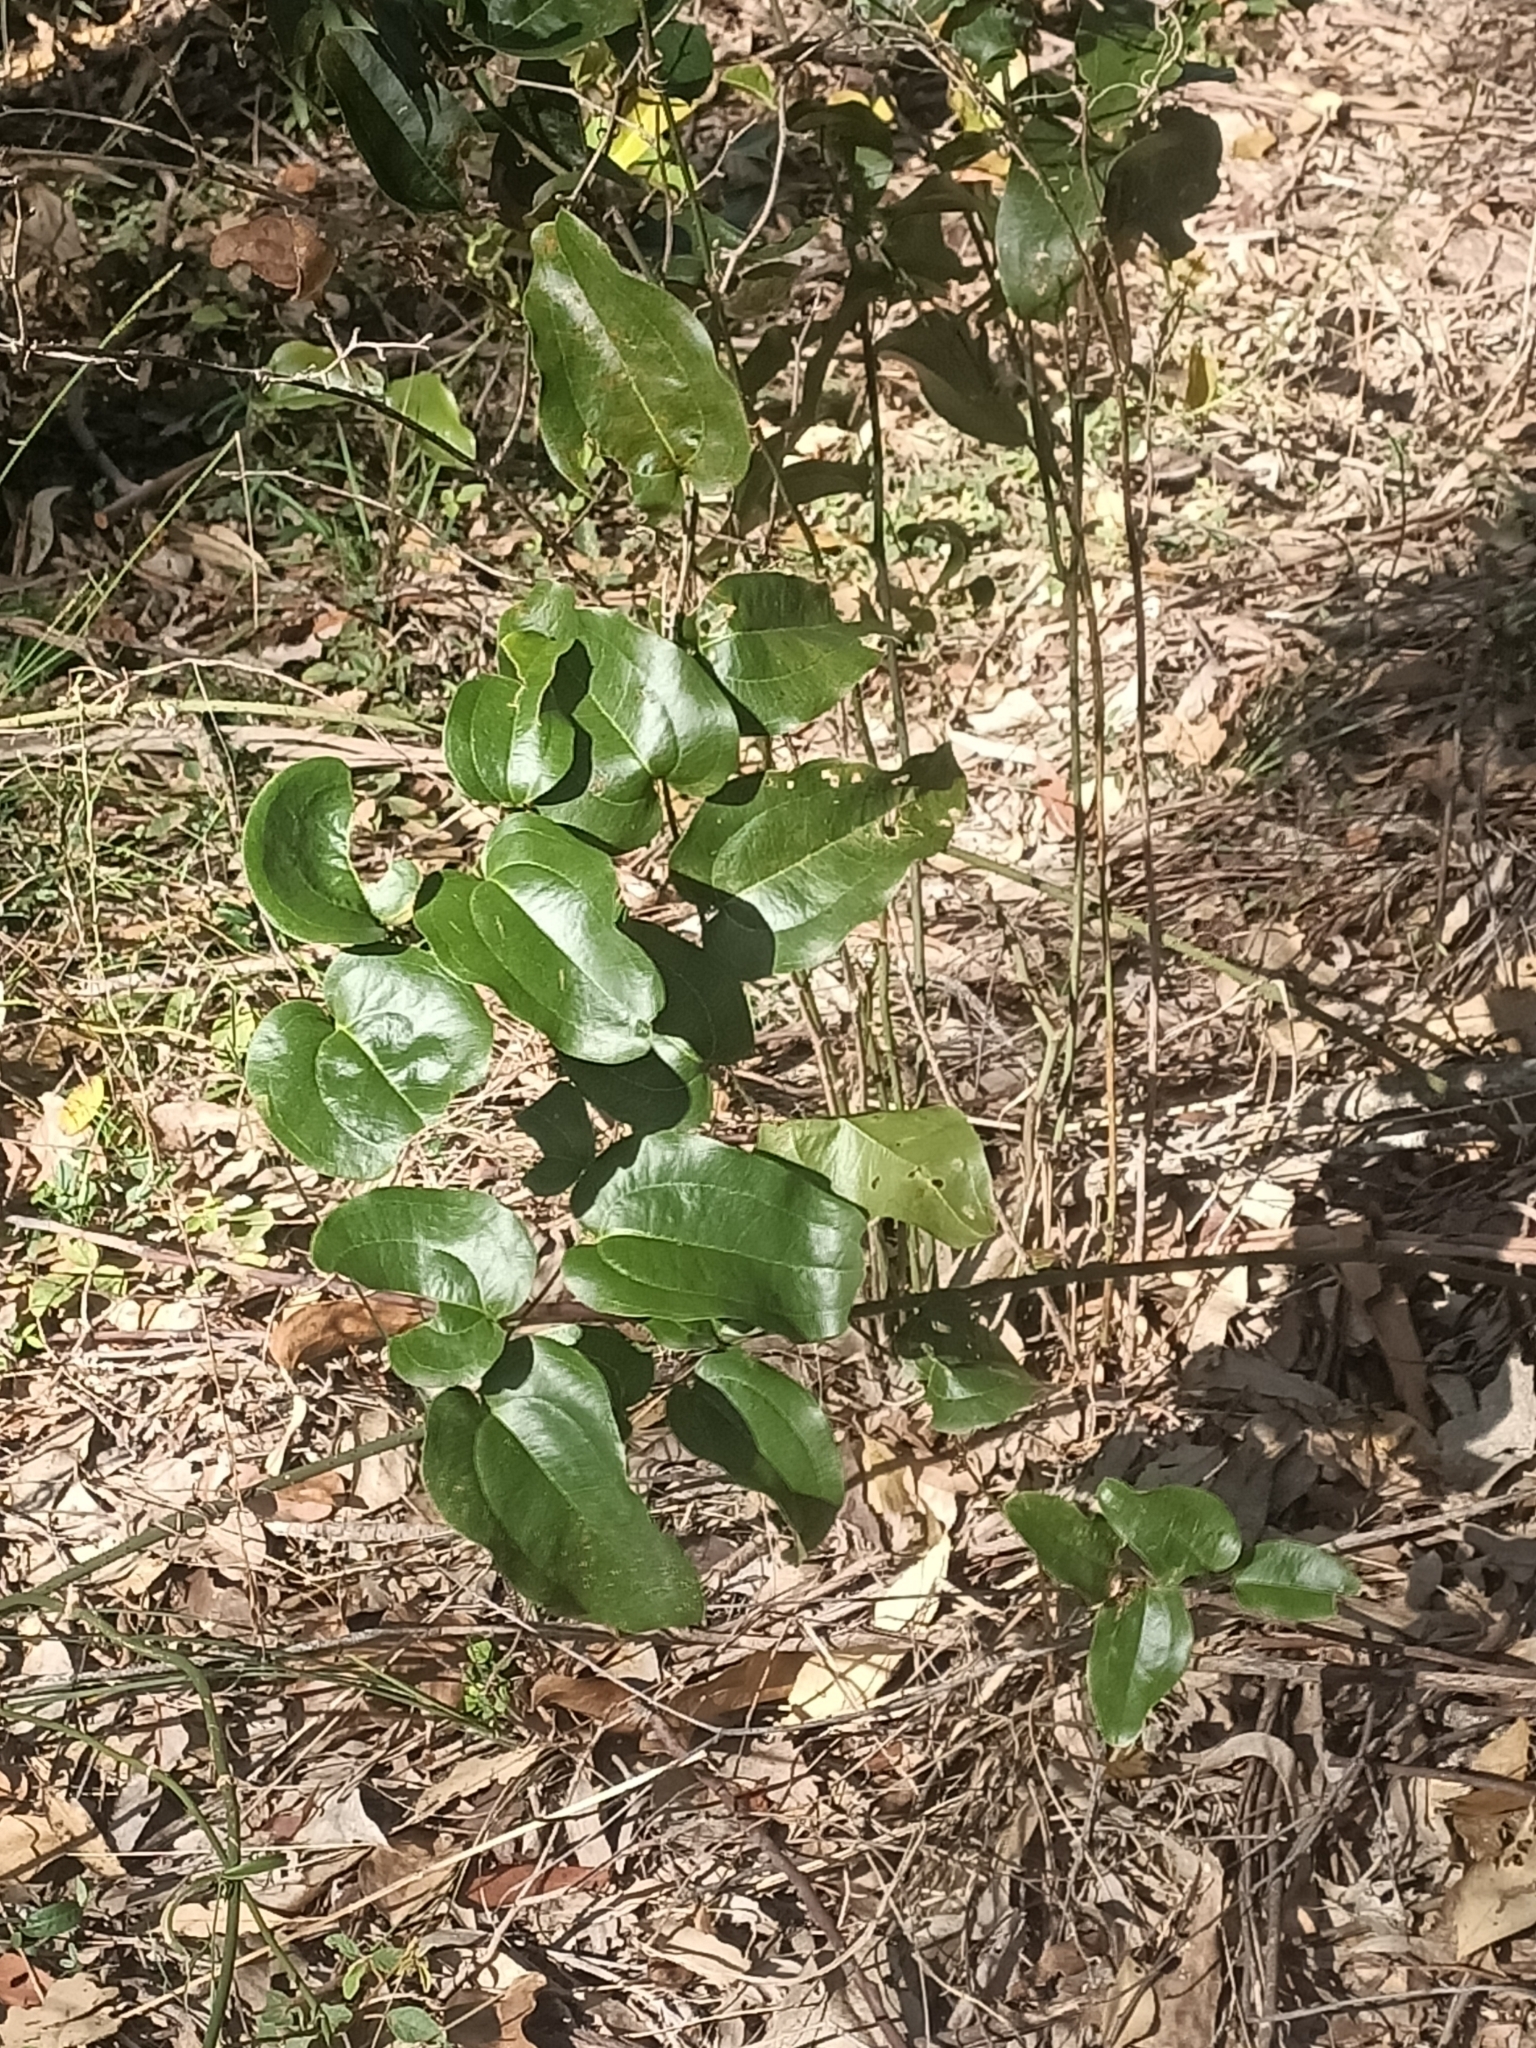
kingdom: Plantae
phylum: Tracheophyta
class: Liliopsida
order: Liliales
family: Smilacaceae
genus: Smilax
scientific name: Smilax australis
